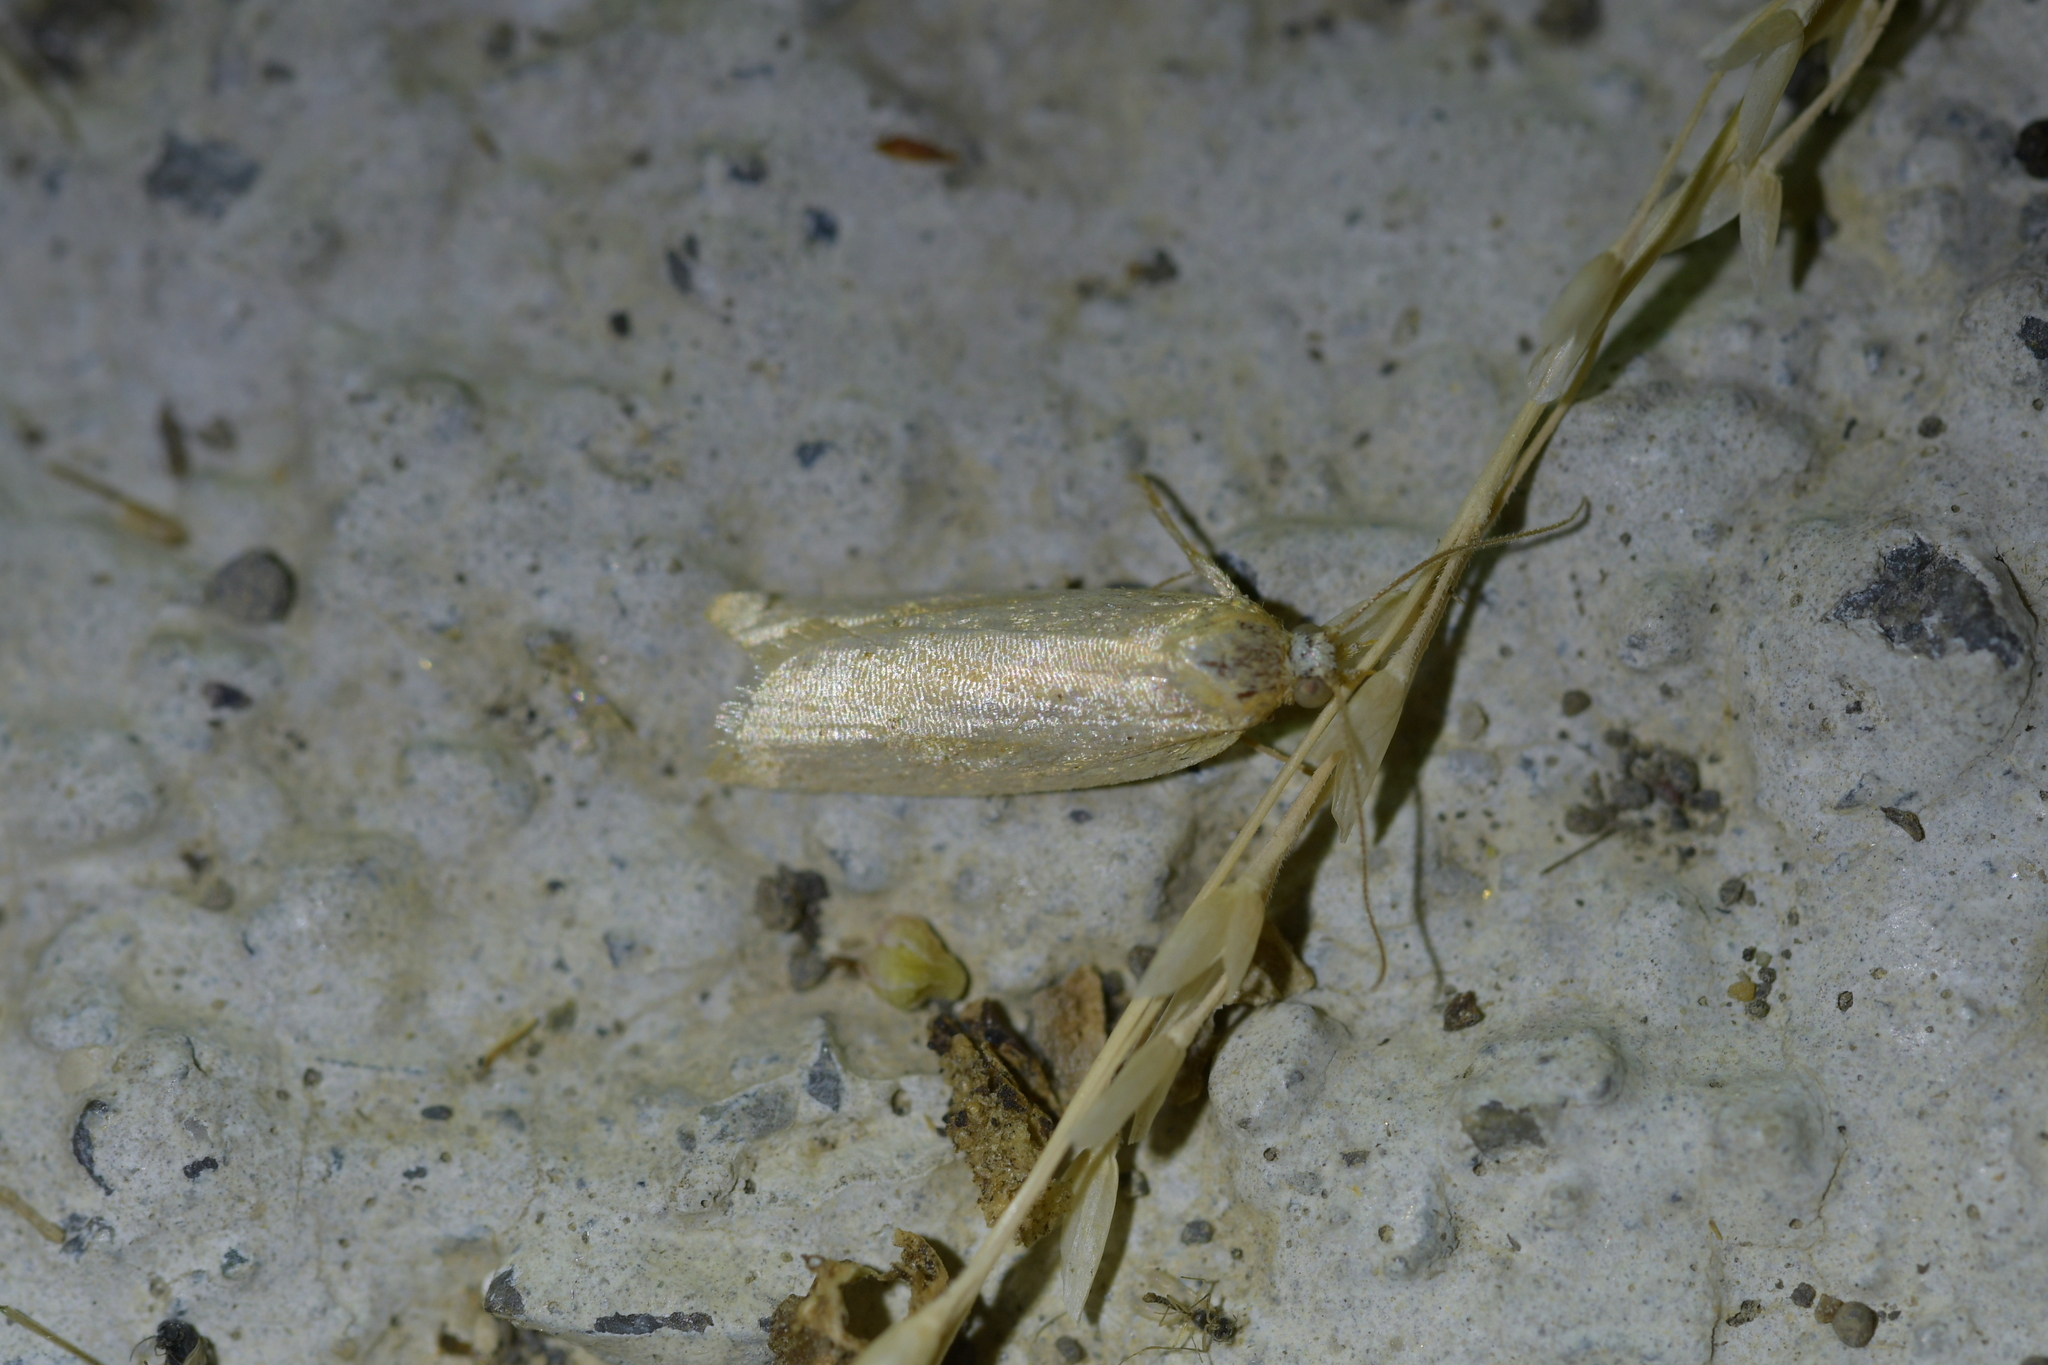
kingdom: Animalia
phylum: Arthropoda
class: Insecta
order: Lepidoptera
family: Tortricidae
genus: Clepsis
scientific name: Clepsis
